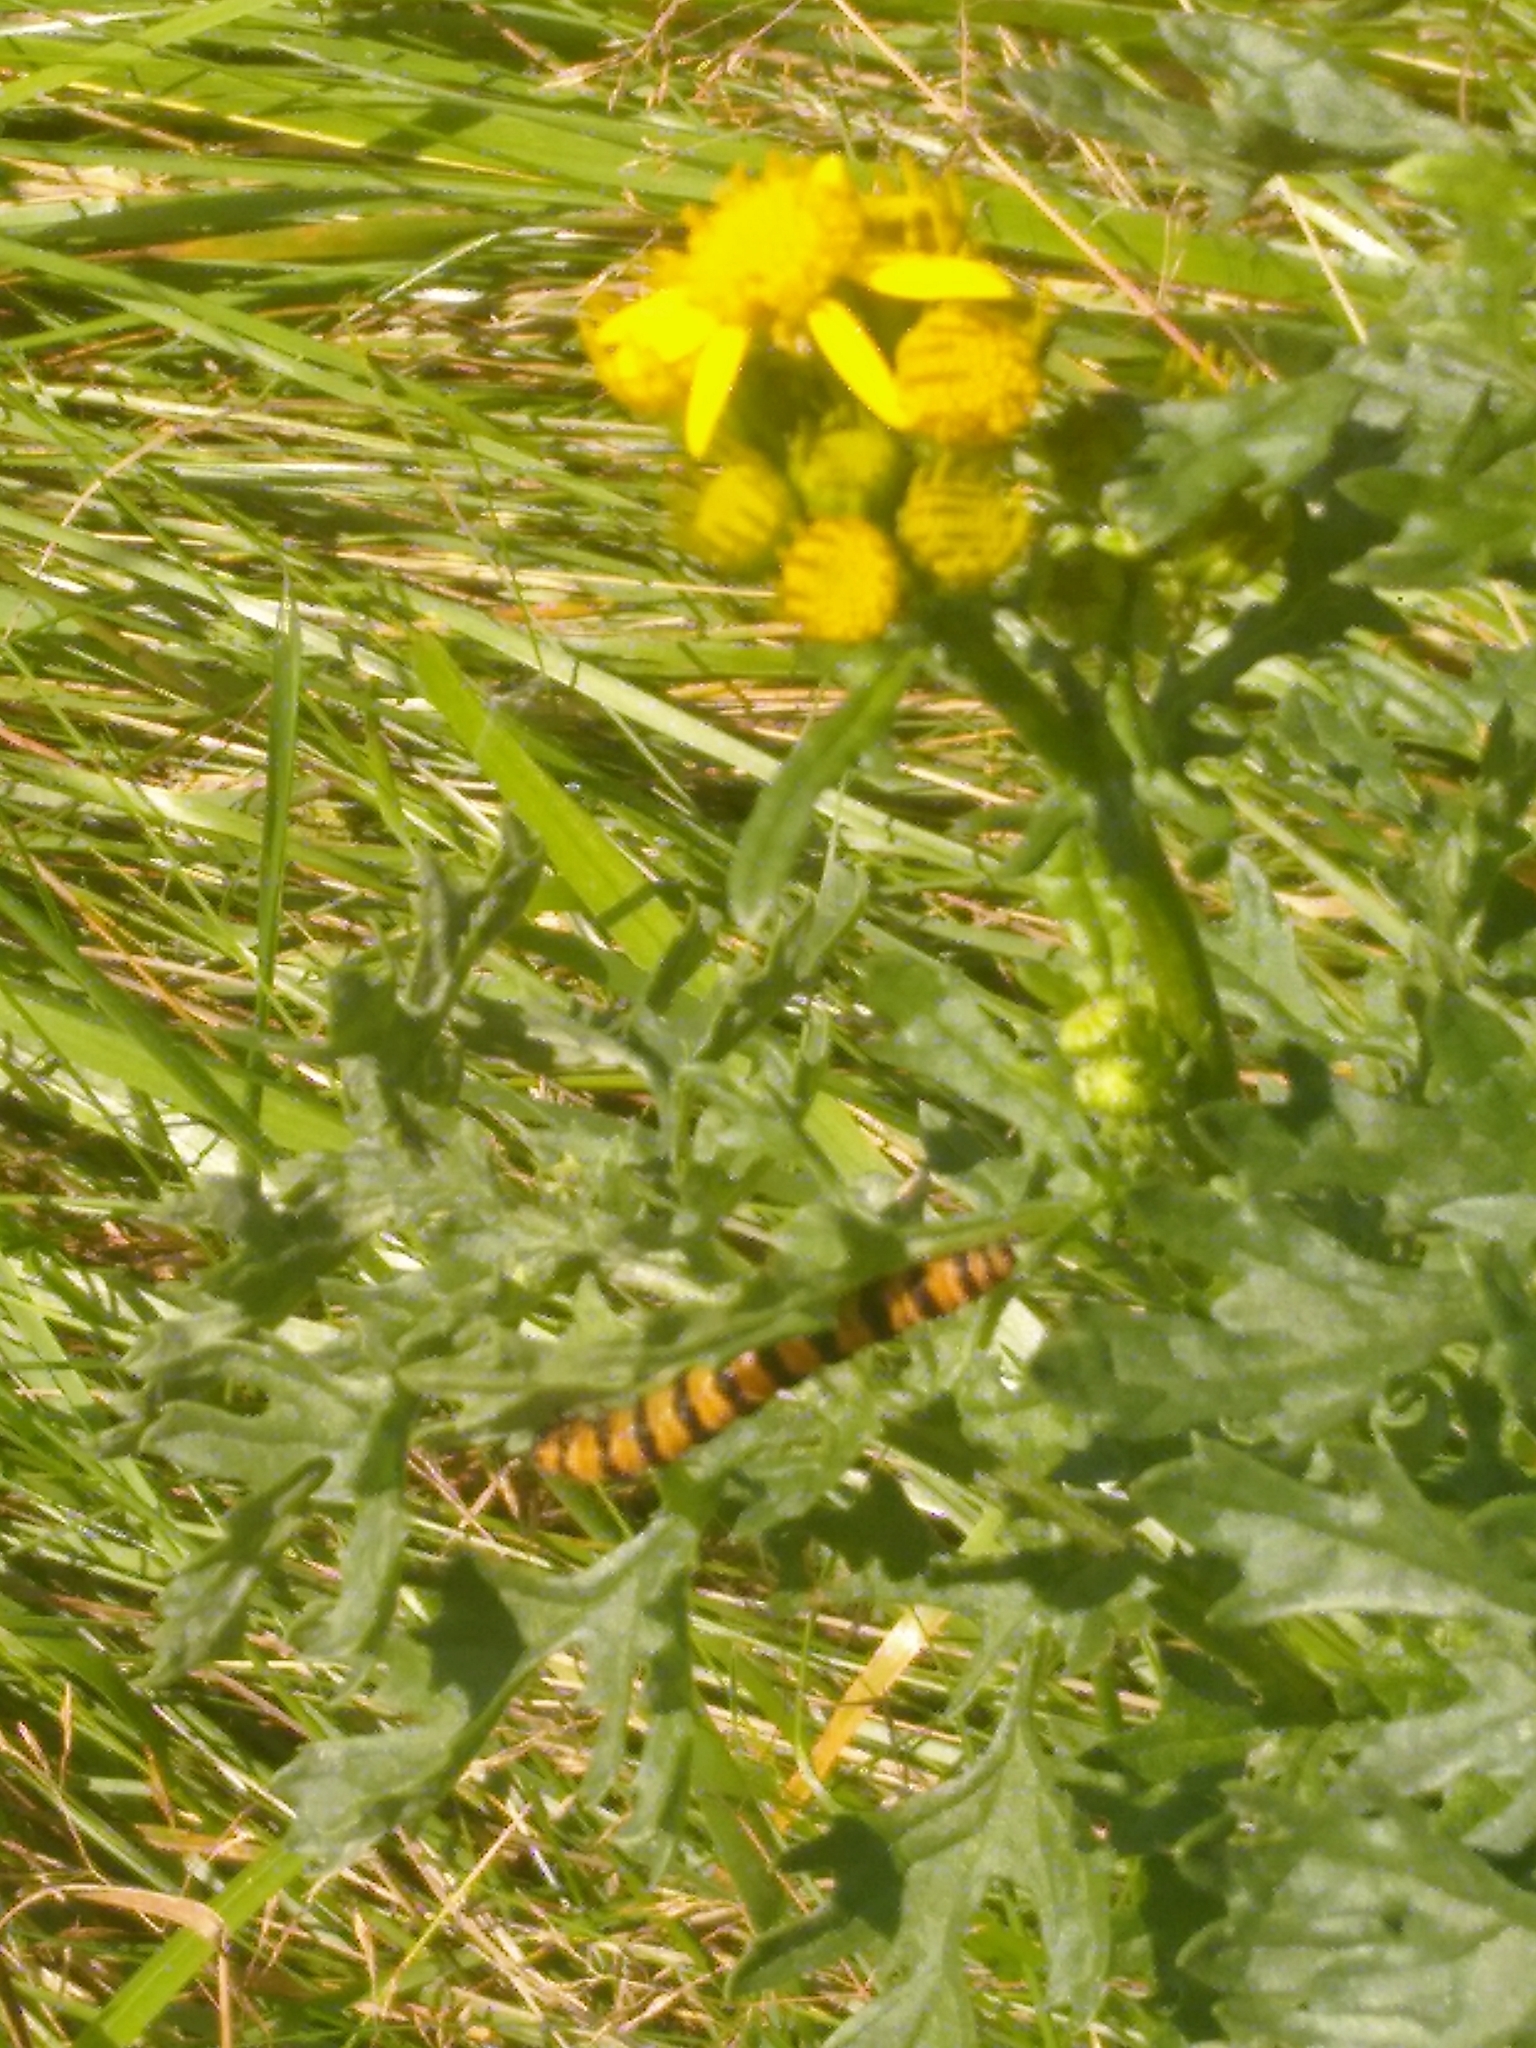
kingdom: Animalia
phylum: Arthropoda
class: Insecta
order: Lepidoptera
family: Erebidae
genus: Tyria
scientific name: Tyria jacobaeae
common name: Cinnabar
